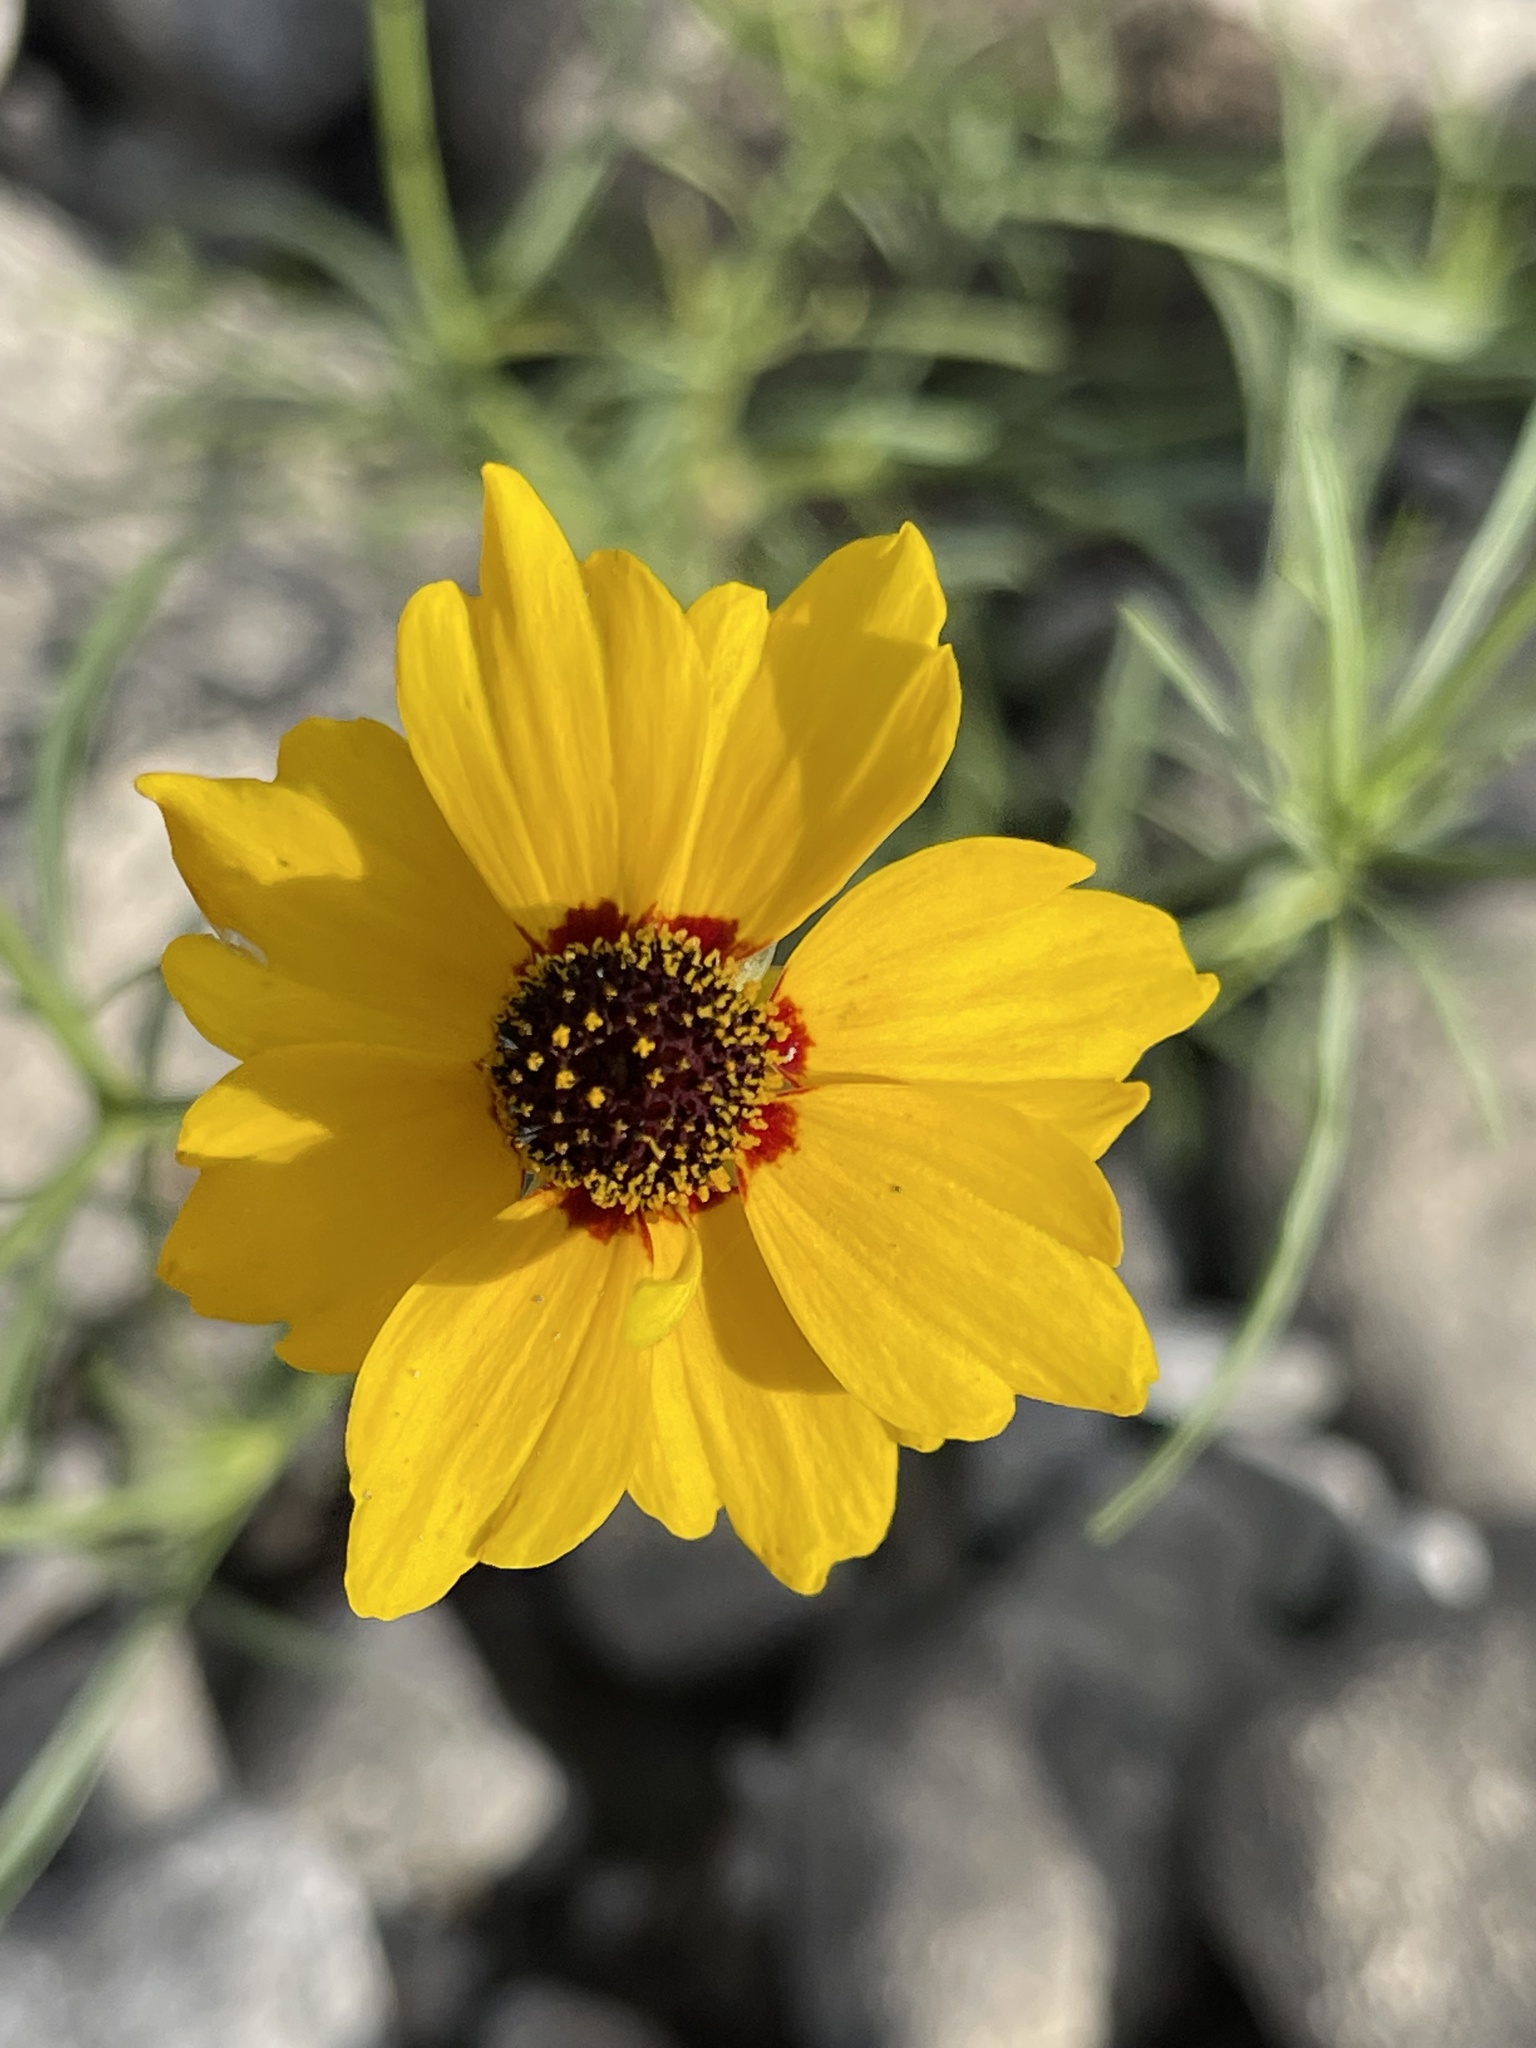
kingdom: Plantae
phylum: Tracheophyta
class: Magnoliopsida
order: Asterales
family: Asteraceae
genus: Coreopsis
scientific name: Coreopsis tinctoria
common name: Garden tickseed
